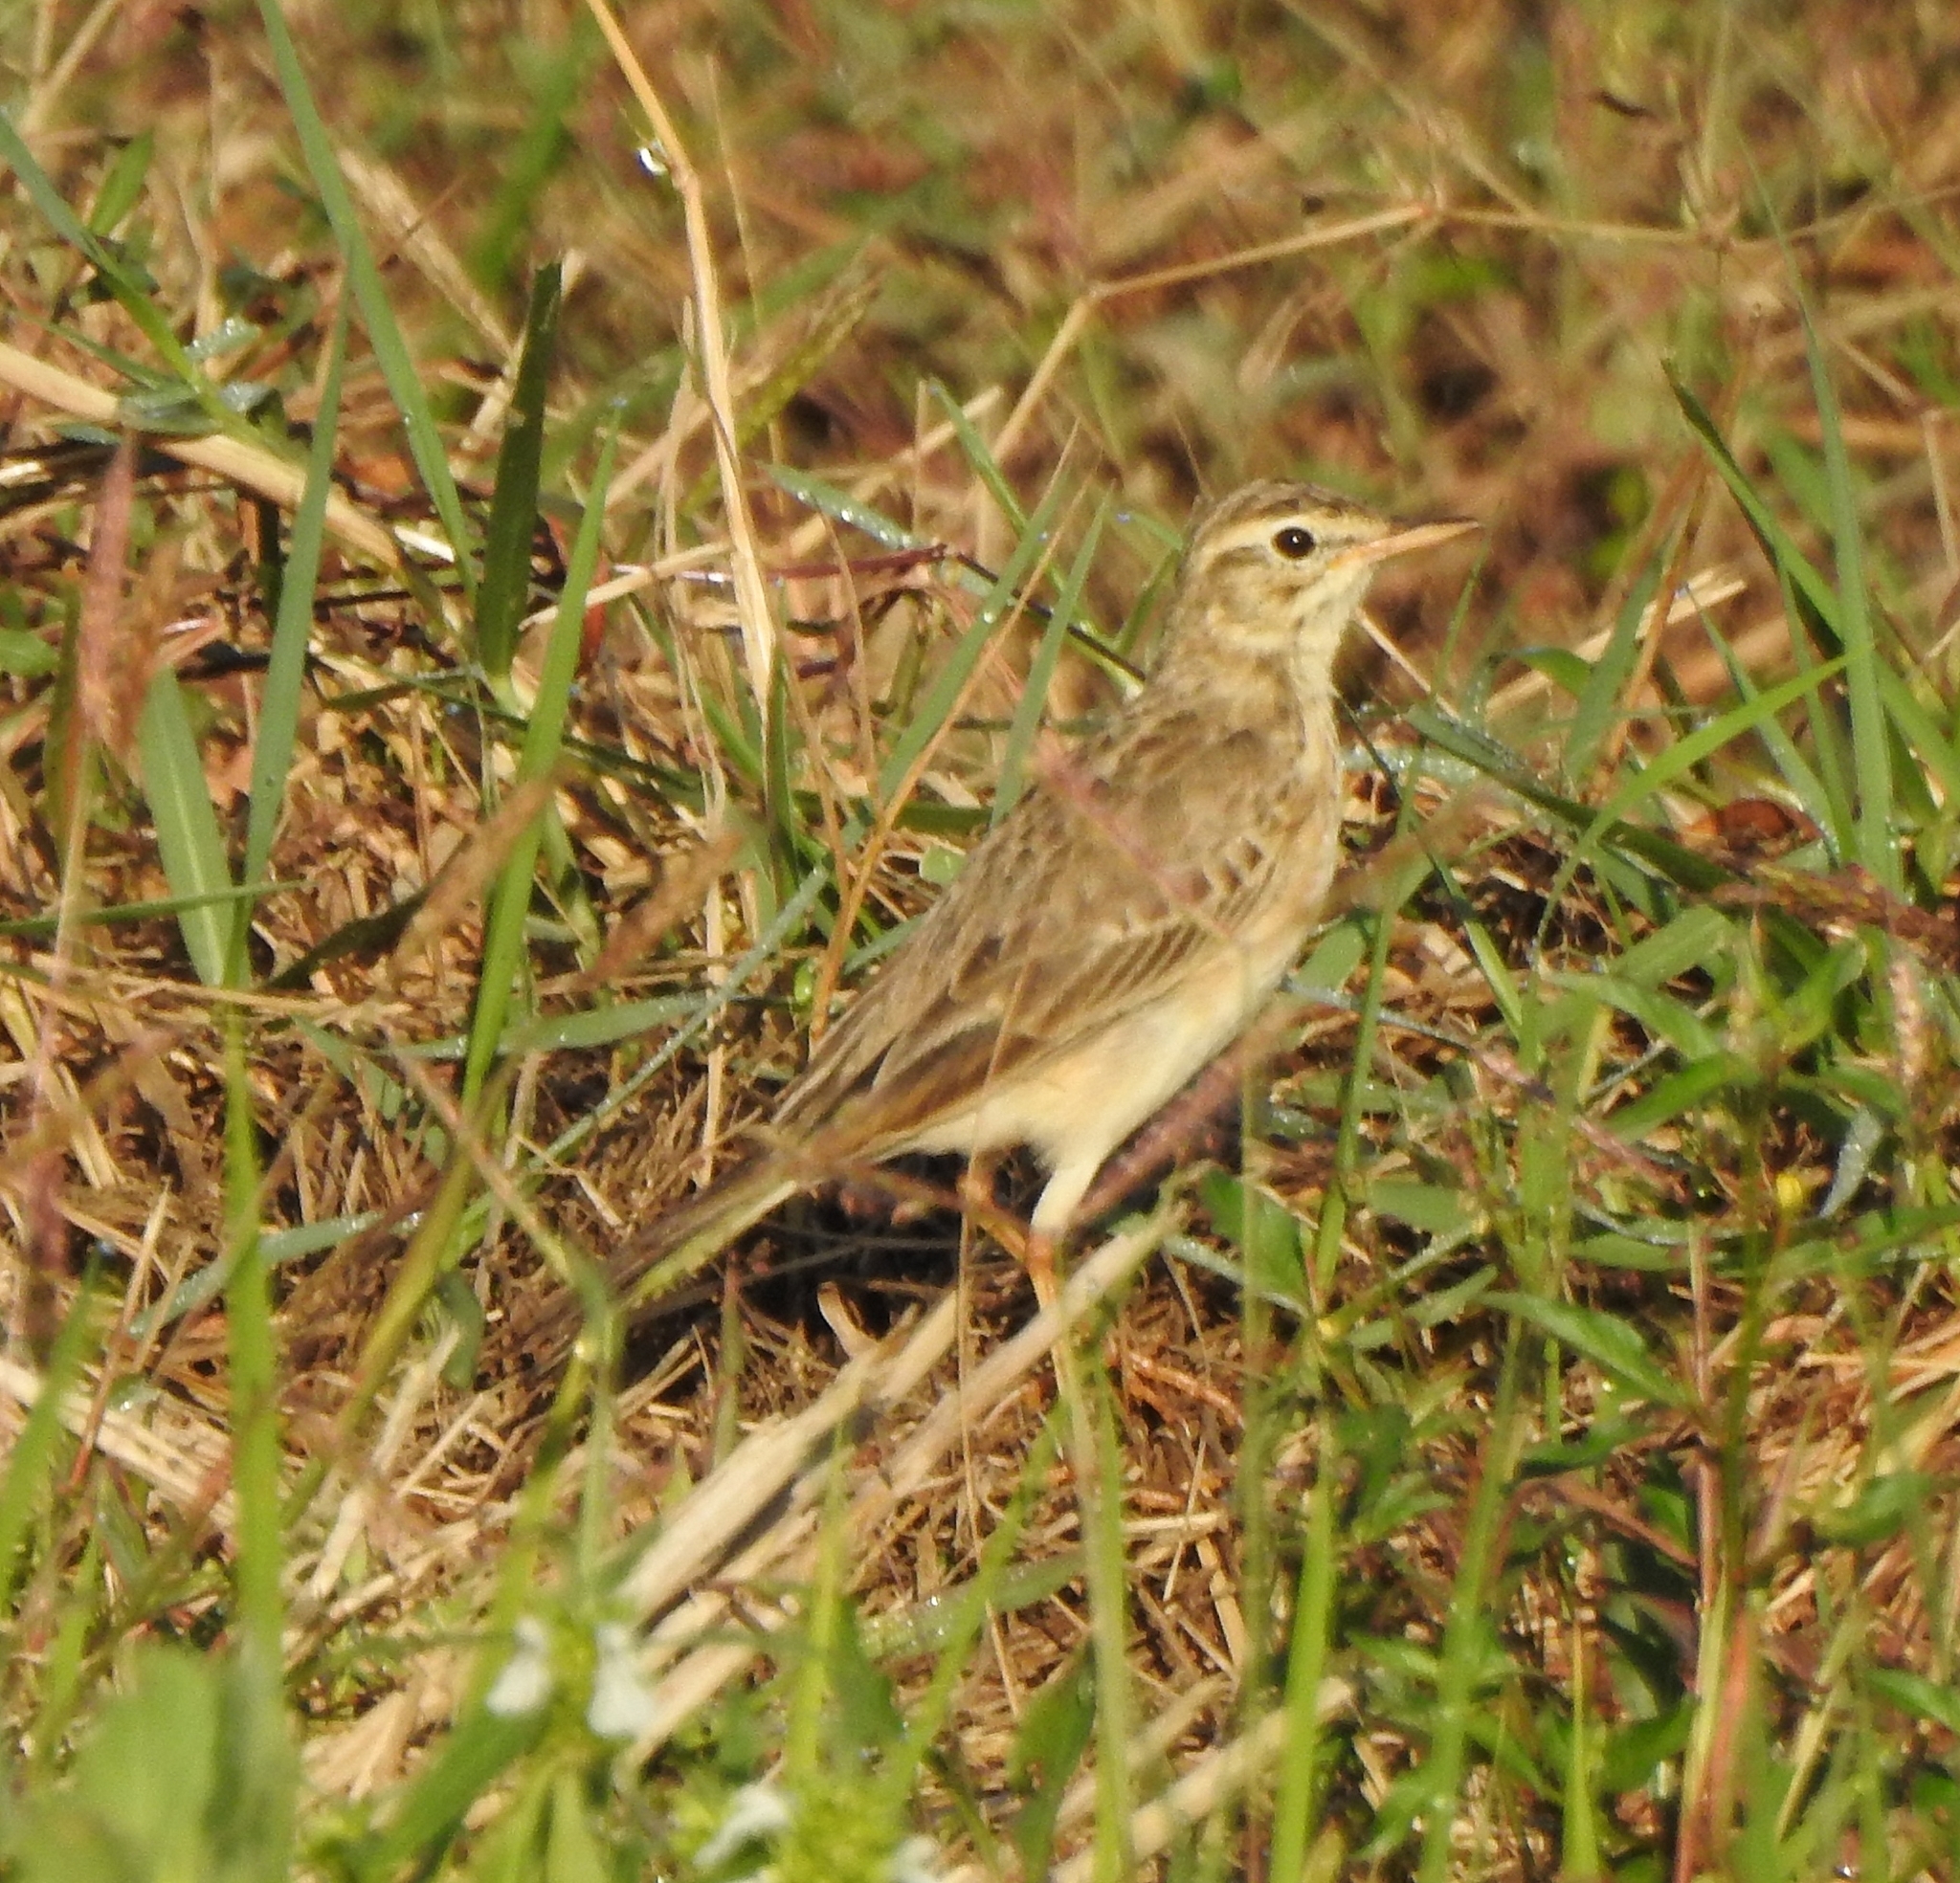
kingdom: Animalia
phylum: Chordata
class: Aves
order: Passeriformes
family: Motacillidae
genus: Anthus
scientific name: Anthus rufulus
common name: Paddyfield pipit
